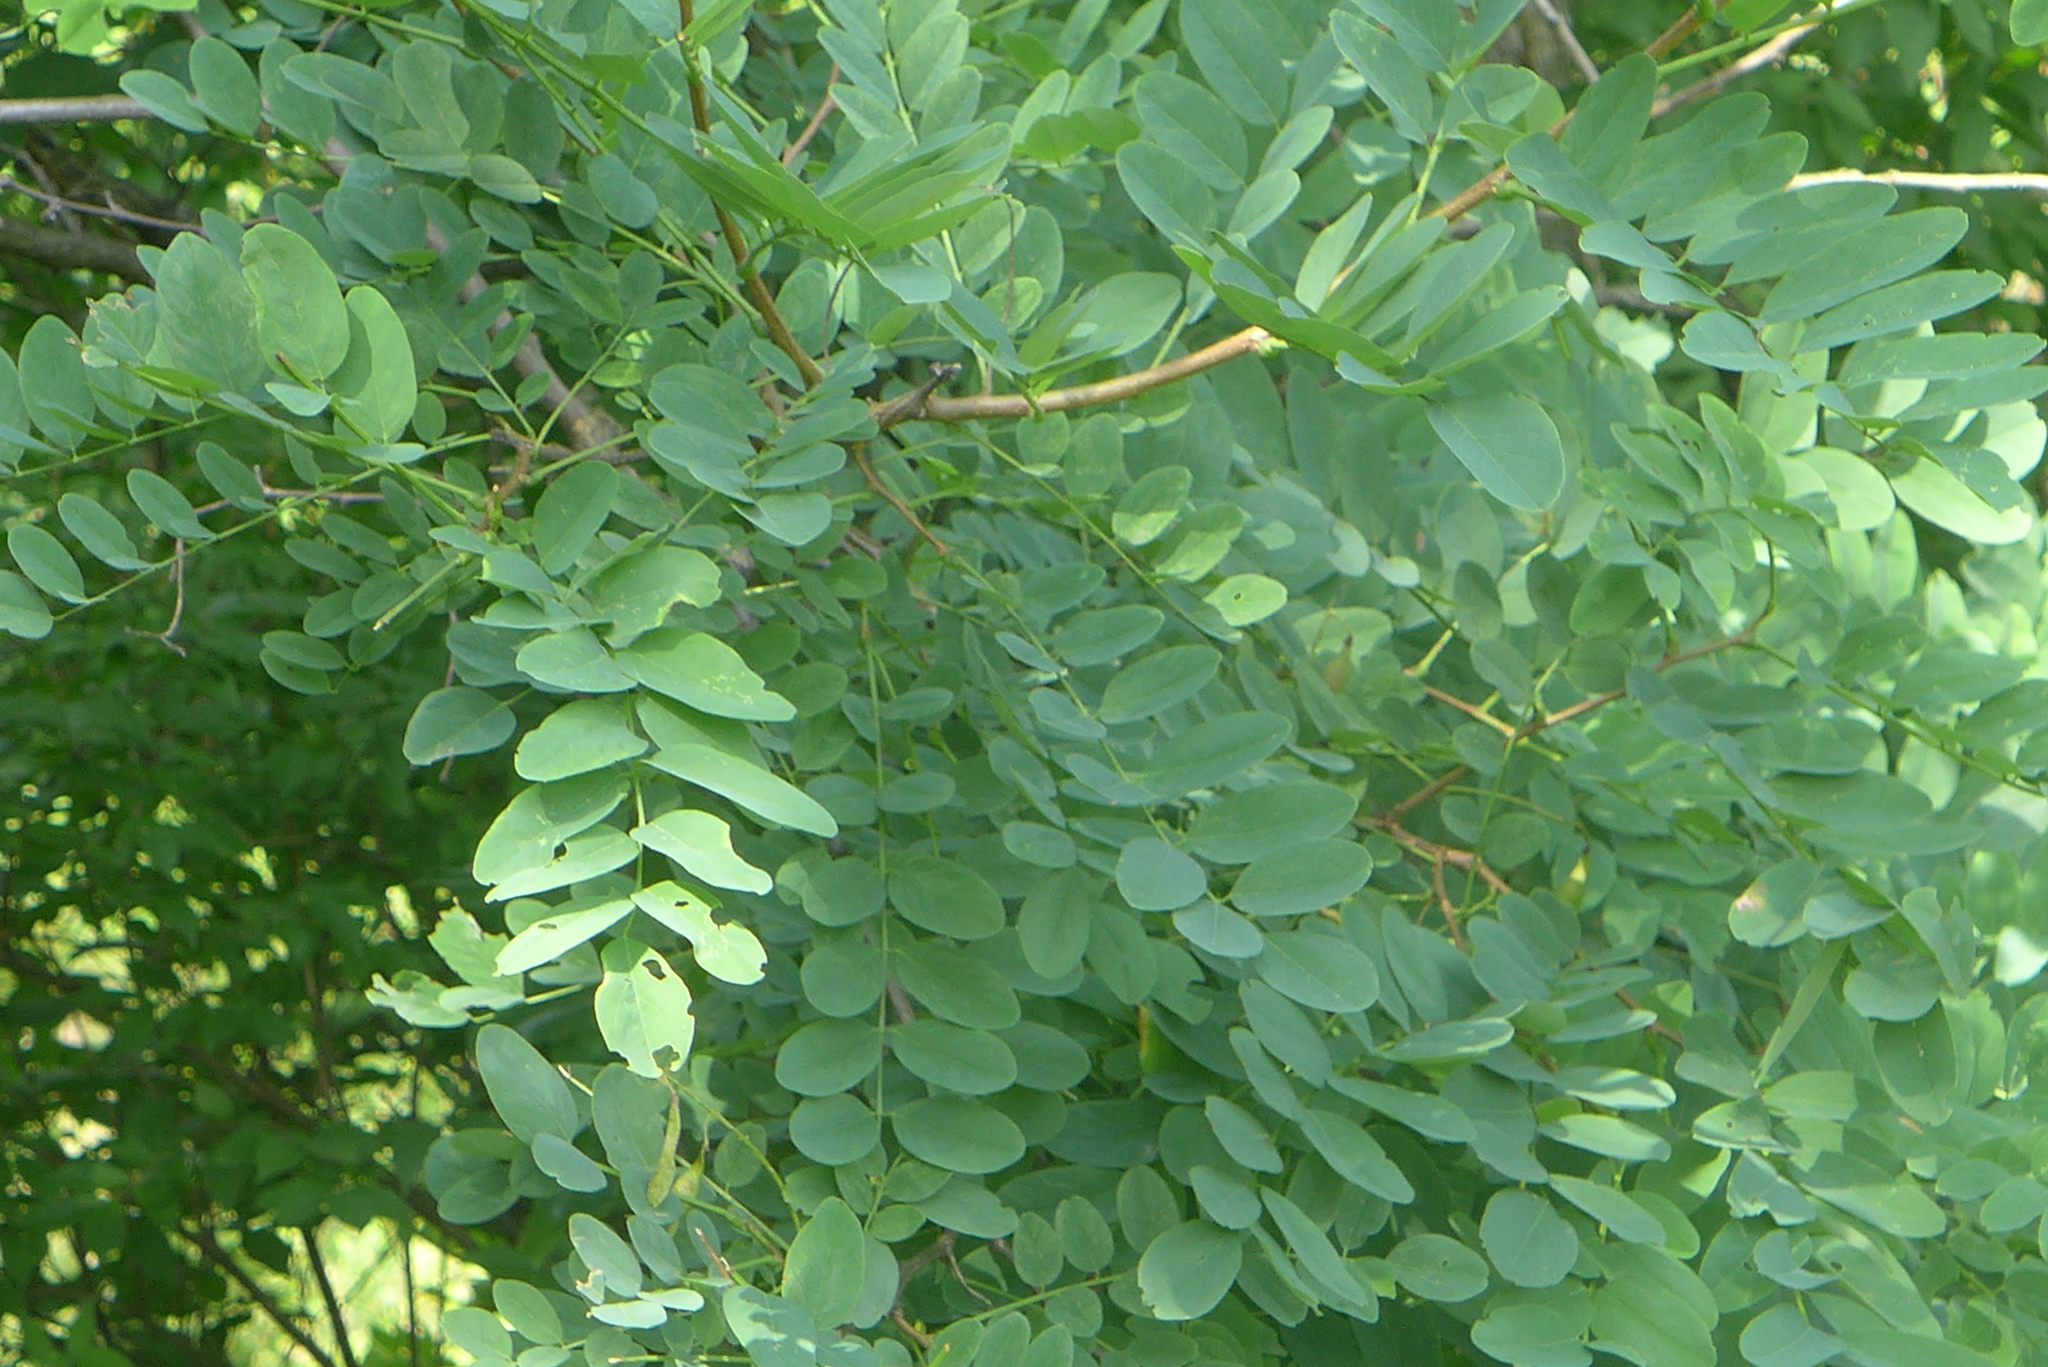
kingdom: Plantae
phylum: Tracheophyta
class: Magnoliopsida
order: Fabales
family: Fabaceae
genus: Robinia
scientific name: Robinia pseudoacacia
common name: Black locust
